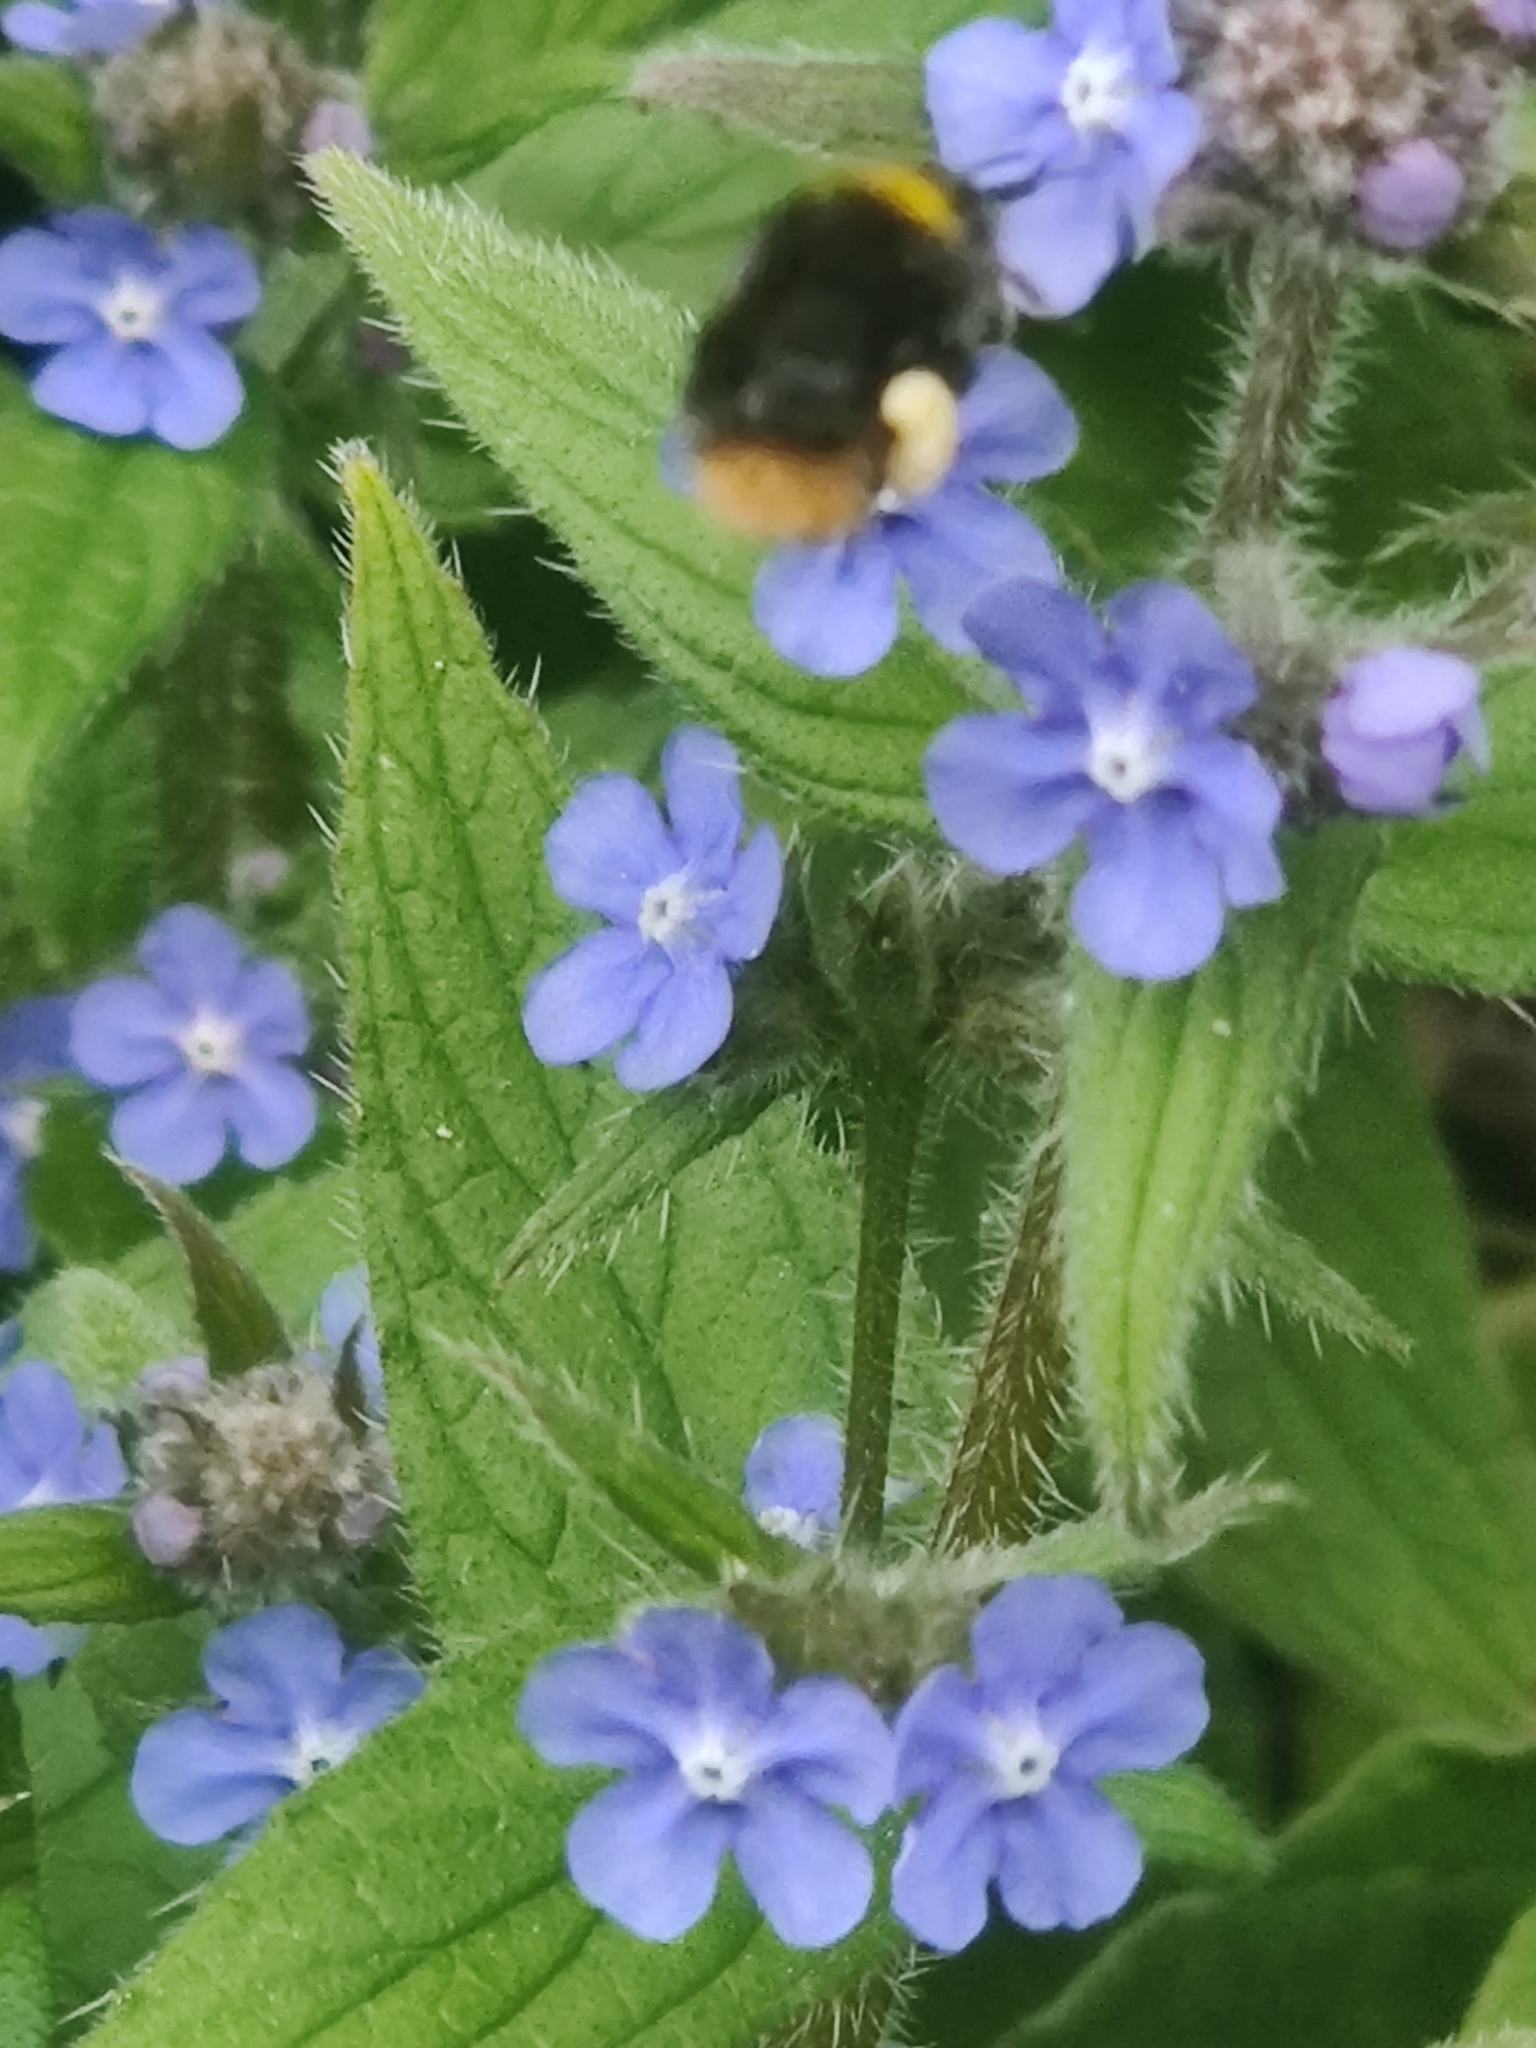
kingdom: Plantae
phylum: Tracheophyta
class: Magnoliopsida
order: Boraginales
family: Boraginaceae
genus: Pentaglottis
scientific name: Pentaglottis sempervirens
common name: Green alkanet
